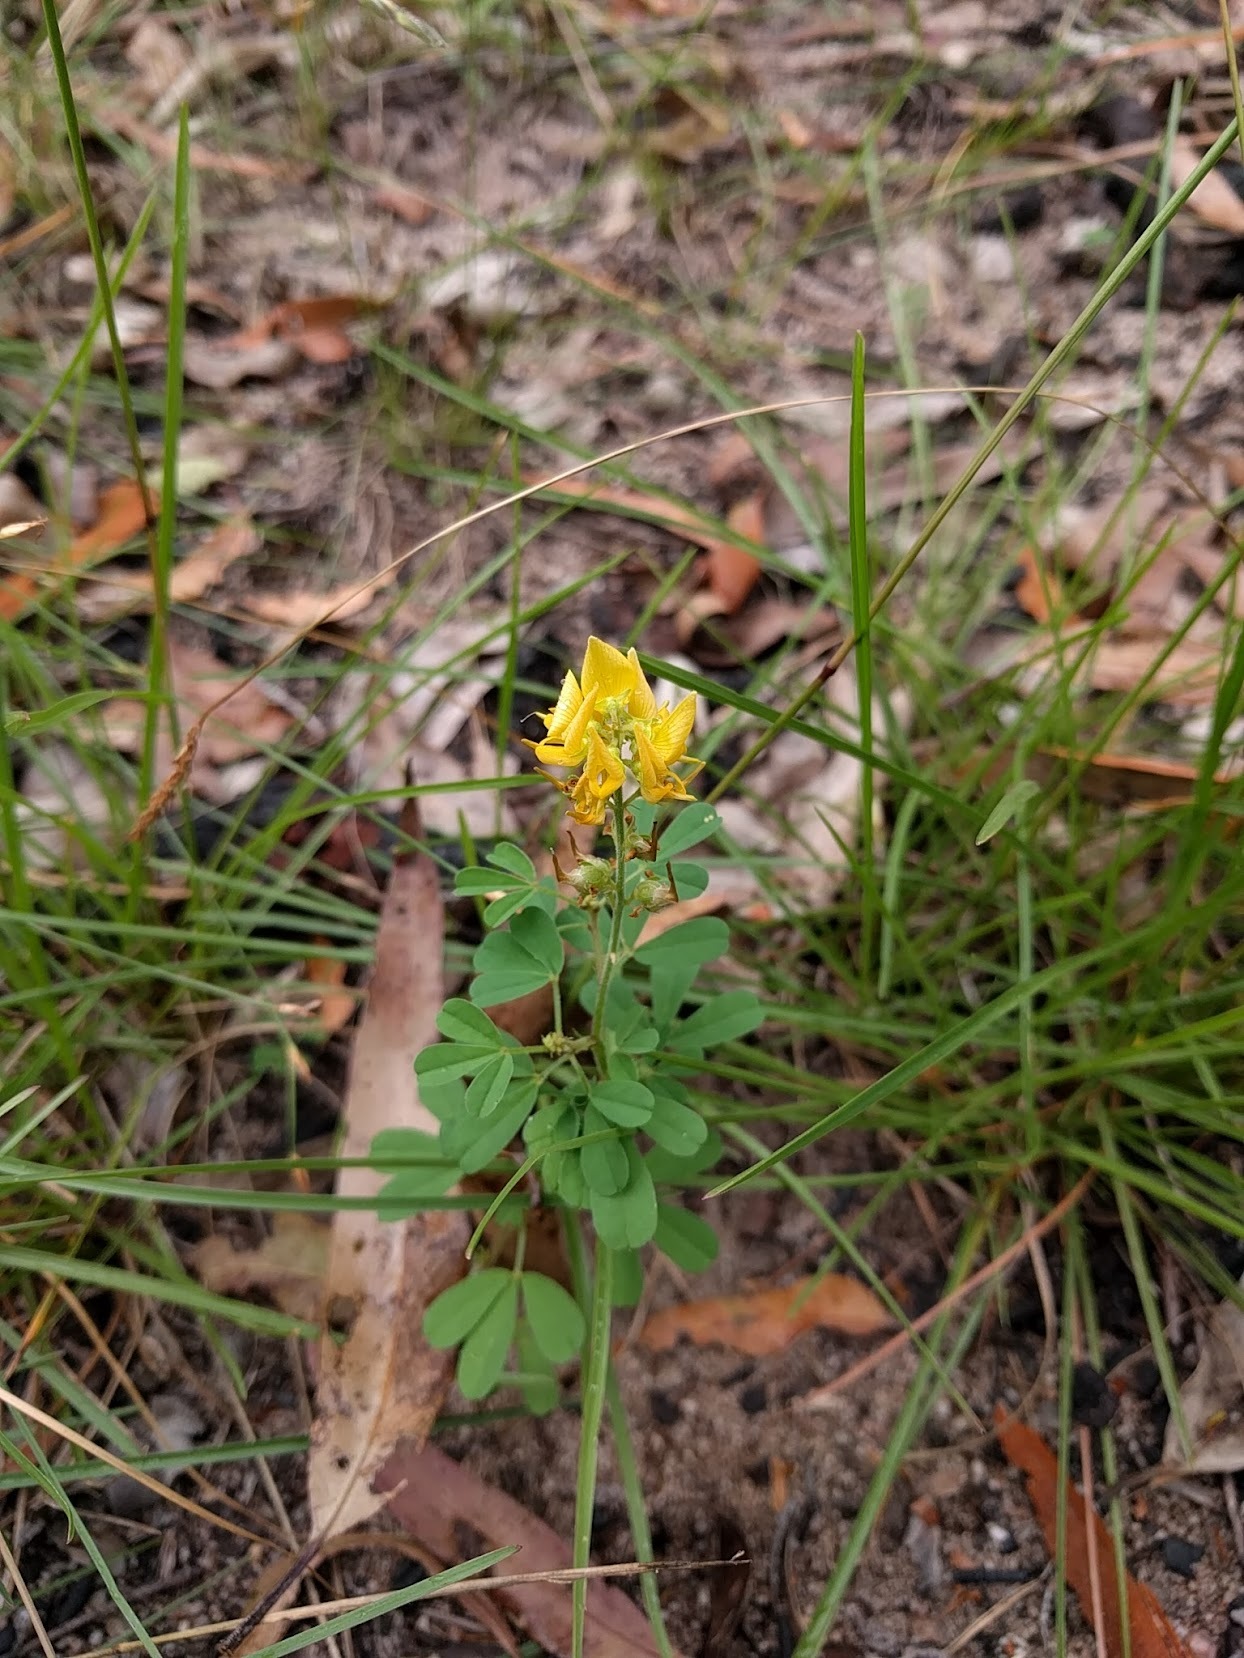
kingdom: Plantae
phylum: Tracheophyta
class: Magnoliopsida
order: Fabales
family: Fabaceae
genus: Crotalaria
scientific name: Crotalaria medicaginea
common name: Trefoil rattlepod
